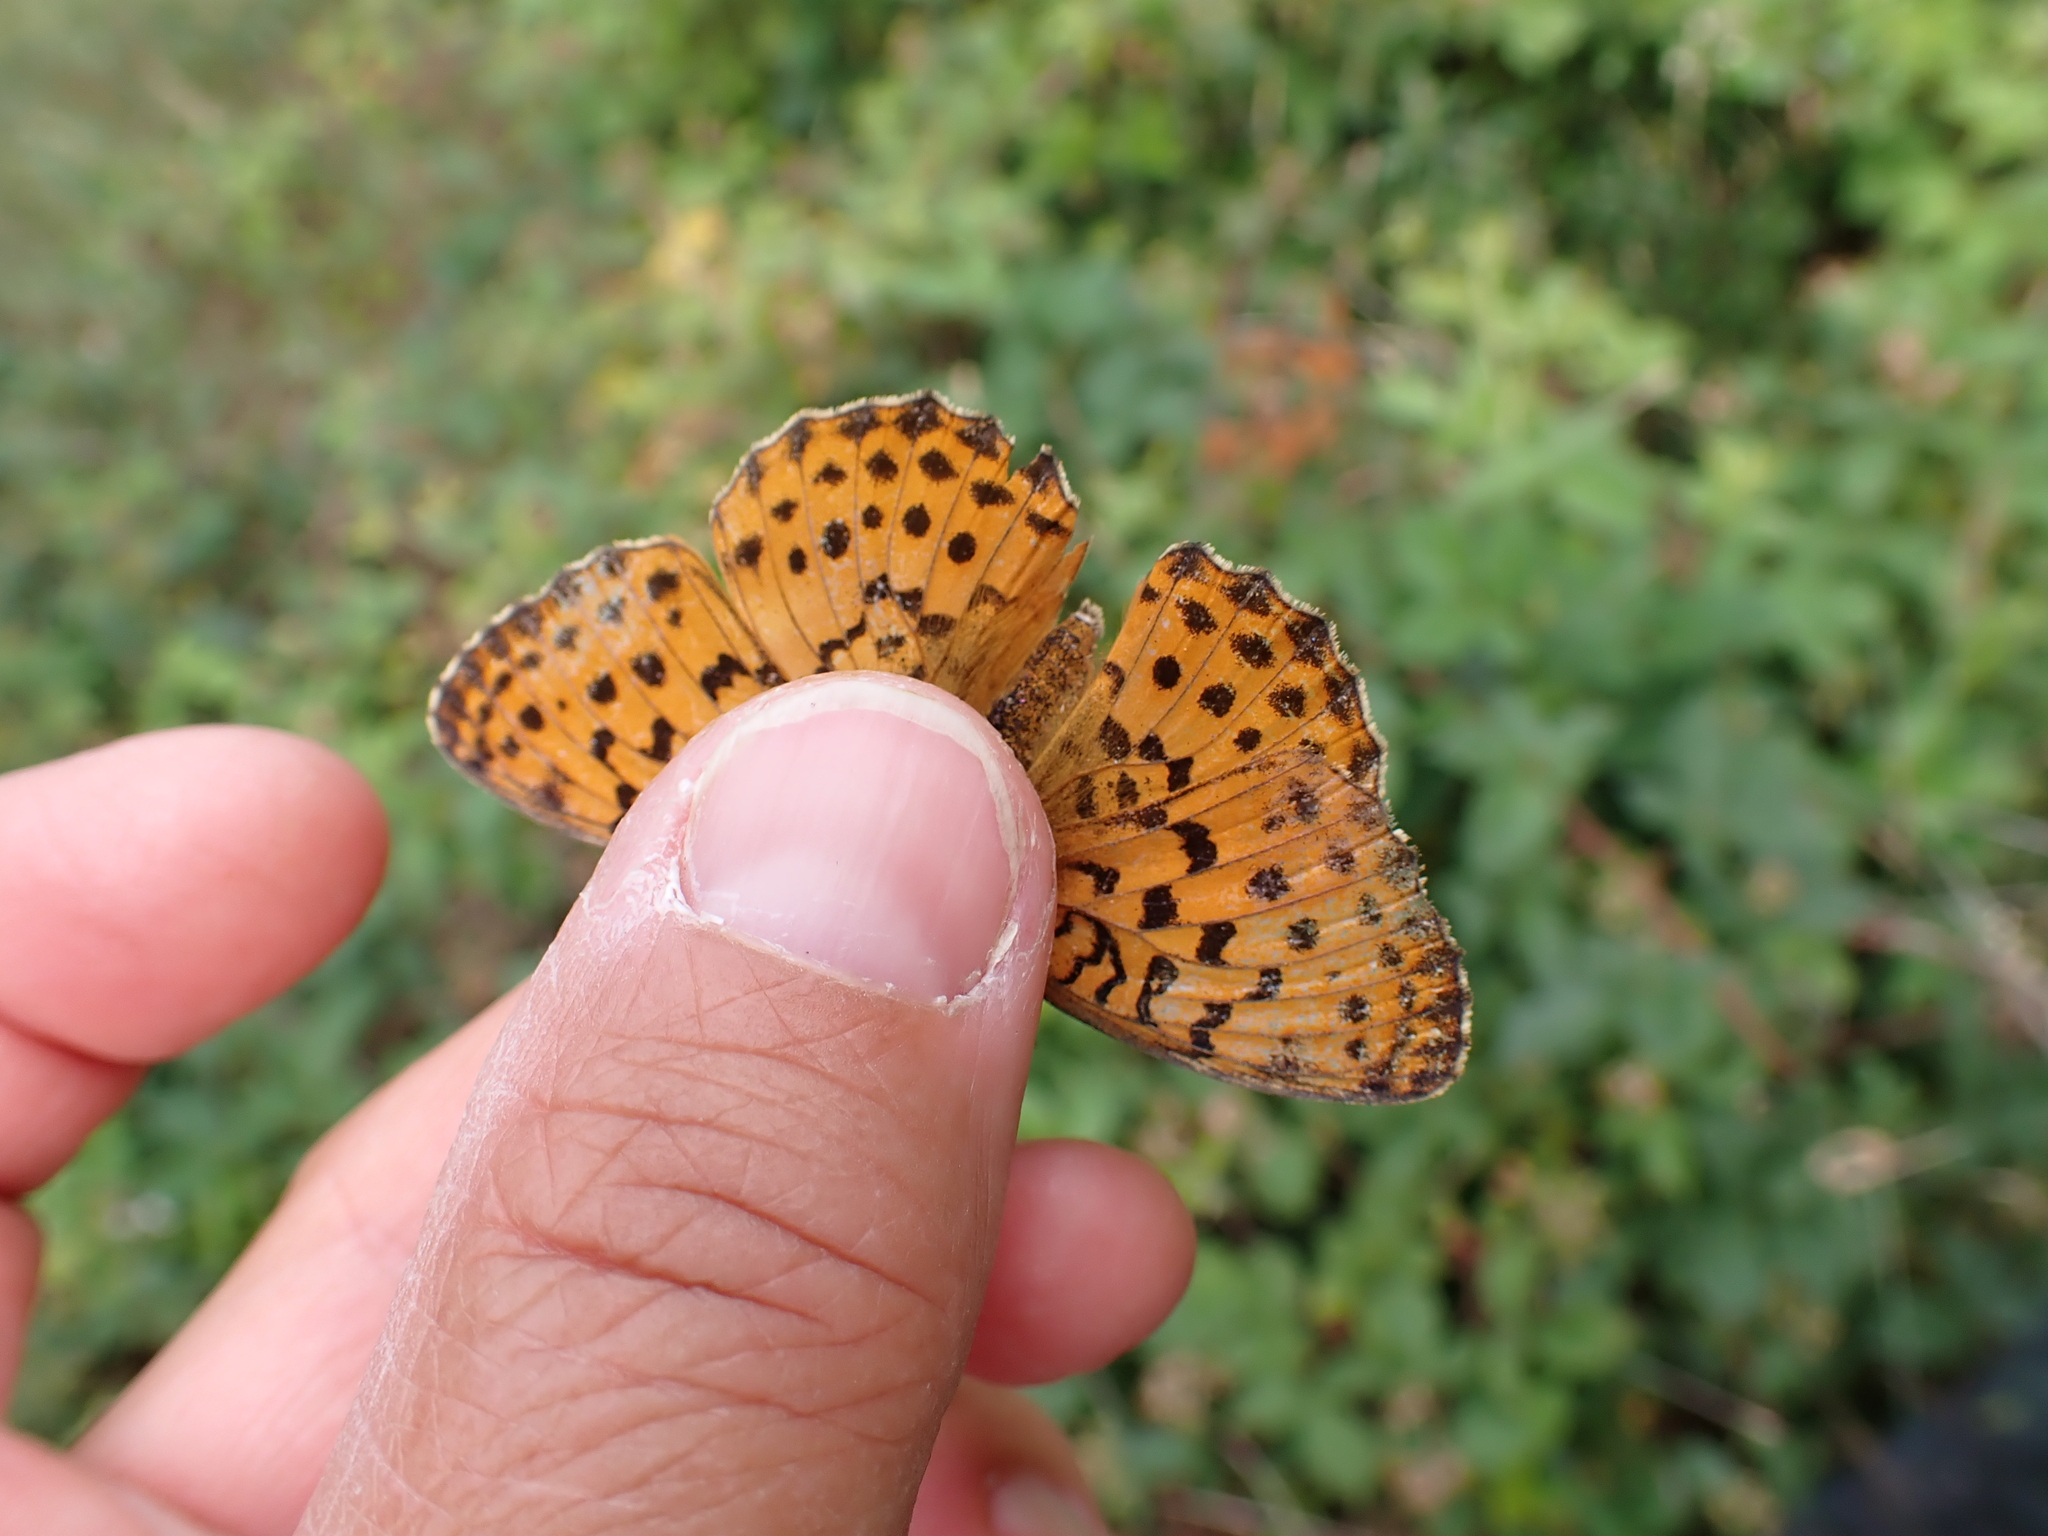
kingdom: Animalia
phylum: Arthropoda
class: Insecta
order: Lepidoptera
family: Nymphalidae
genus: Brenthis
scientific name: Brenthis daphne
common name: Marbled fritillary
